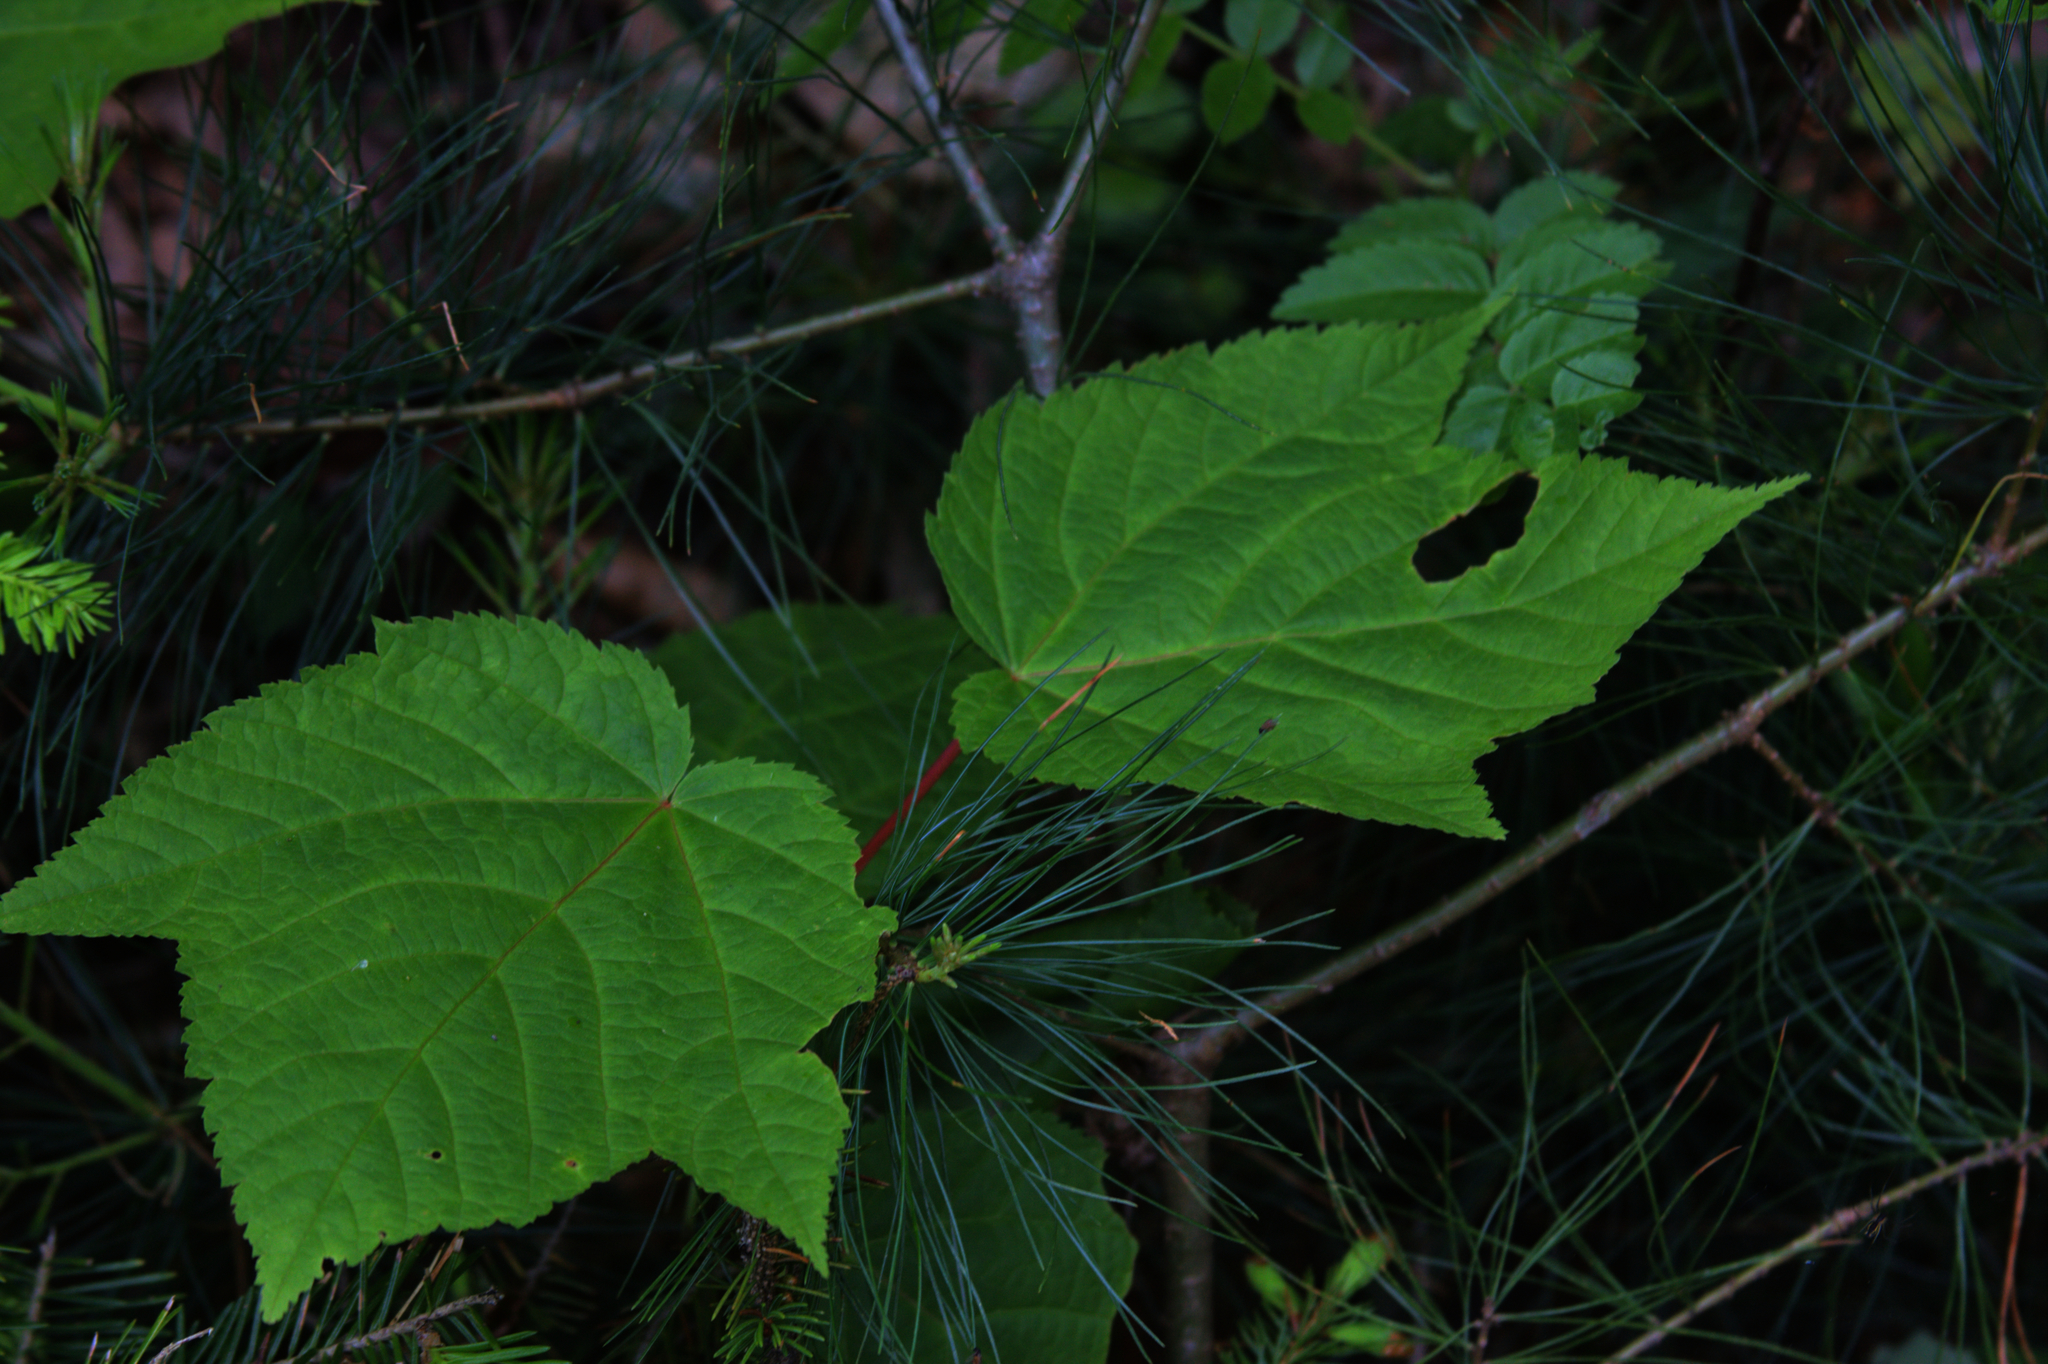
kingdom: Plantae
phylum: Tracheophyta
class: Magnoliopsida
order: Sapindales
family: Sapindaceae
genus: Acer
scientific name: Acer pensylvanicum
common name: Moosewood
